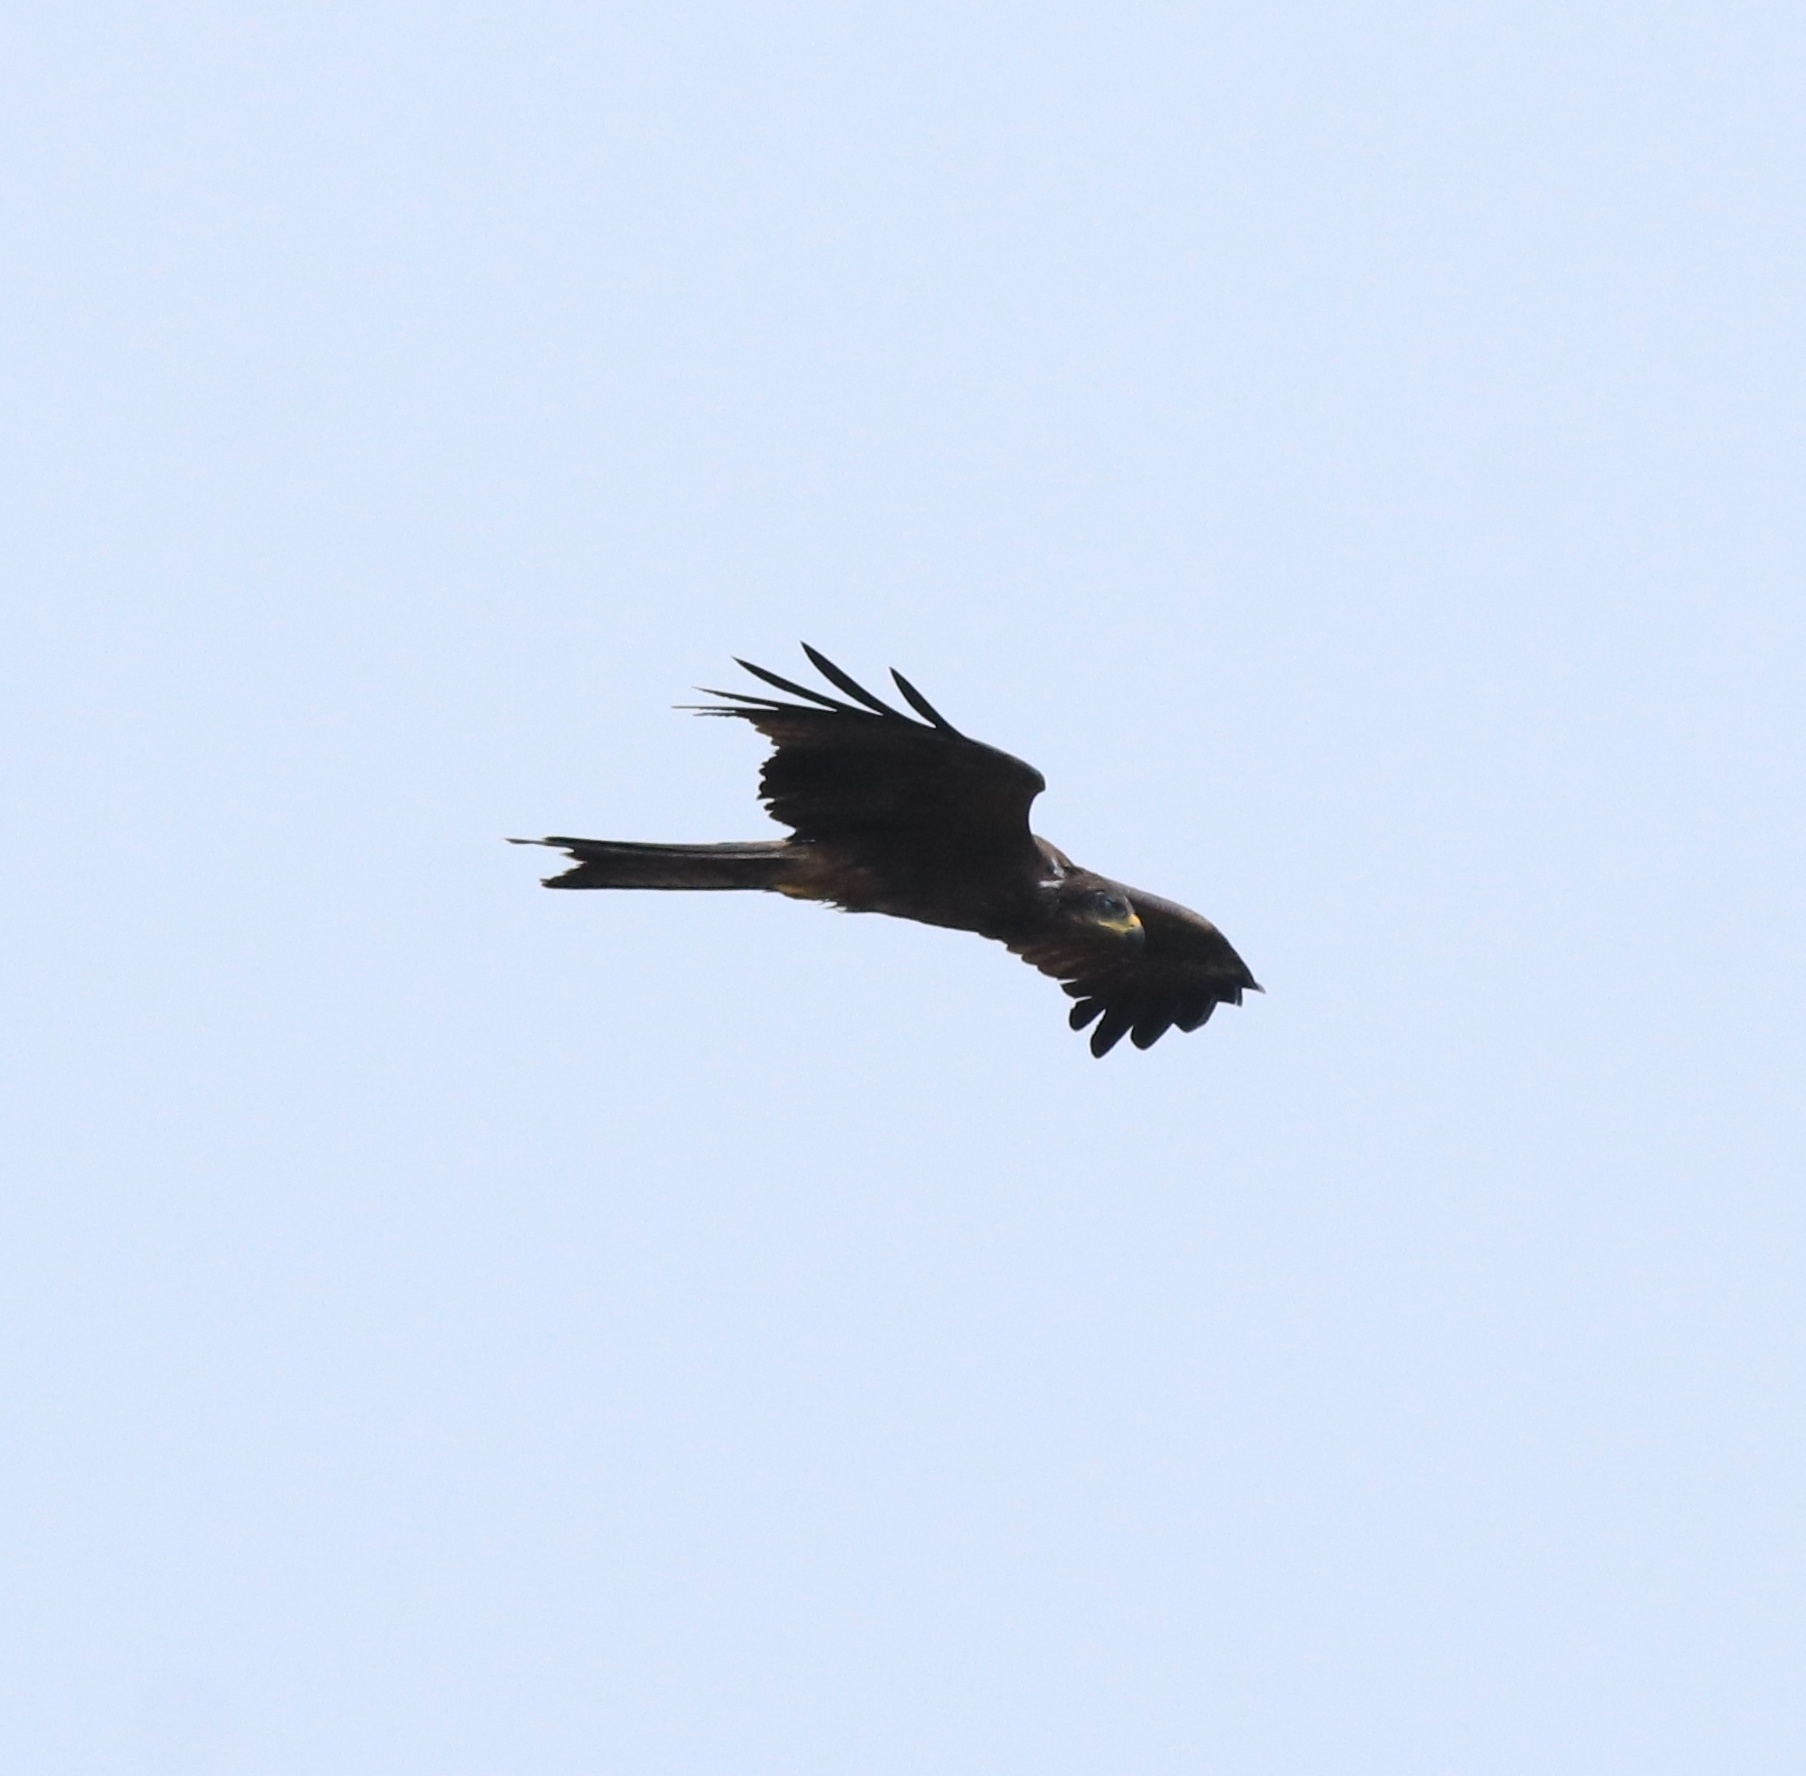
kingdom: Animalia
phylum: Chordata
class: Aves
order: Accipitriformes
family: Accipitridae
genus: Milvus
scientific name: Milvus migrans
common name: Black kite
